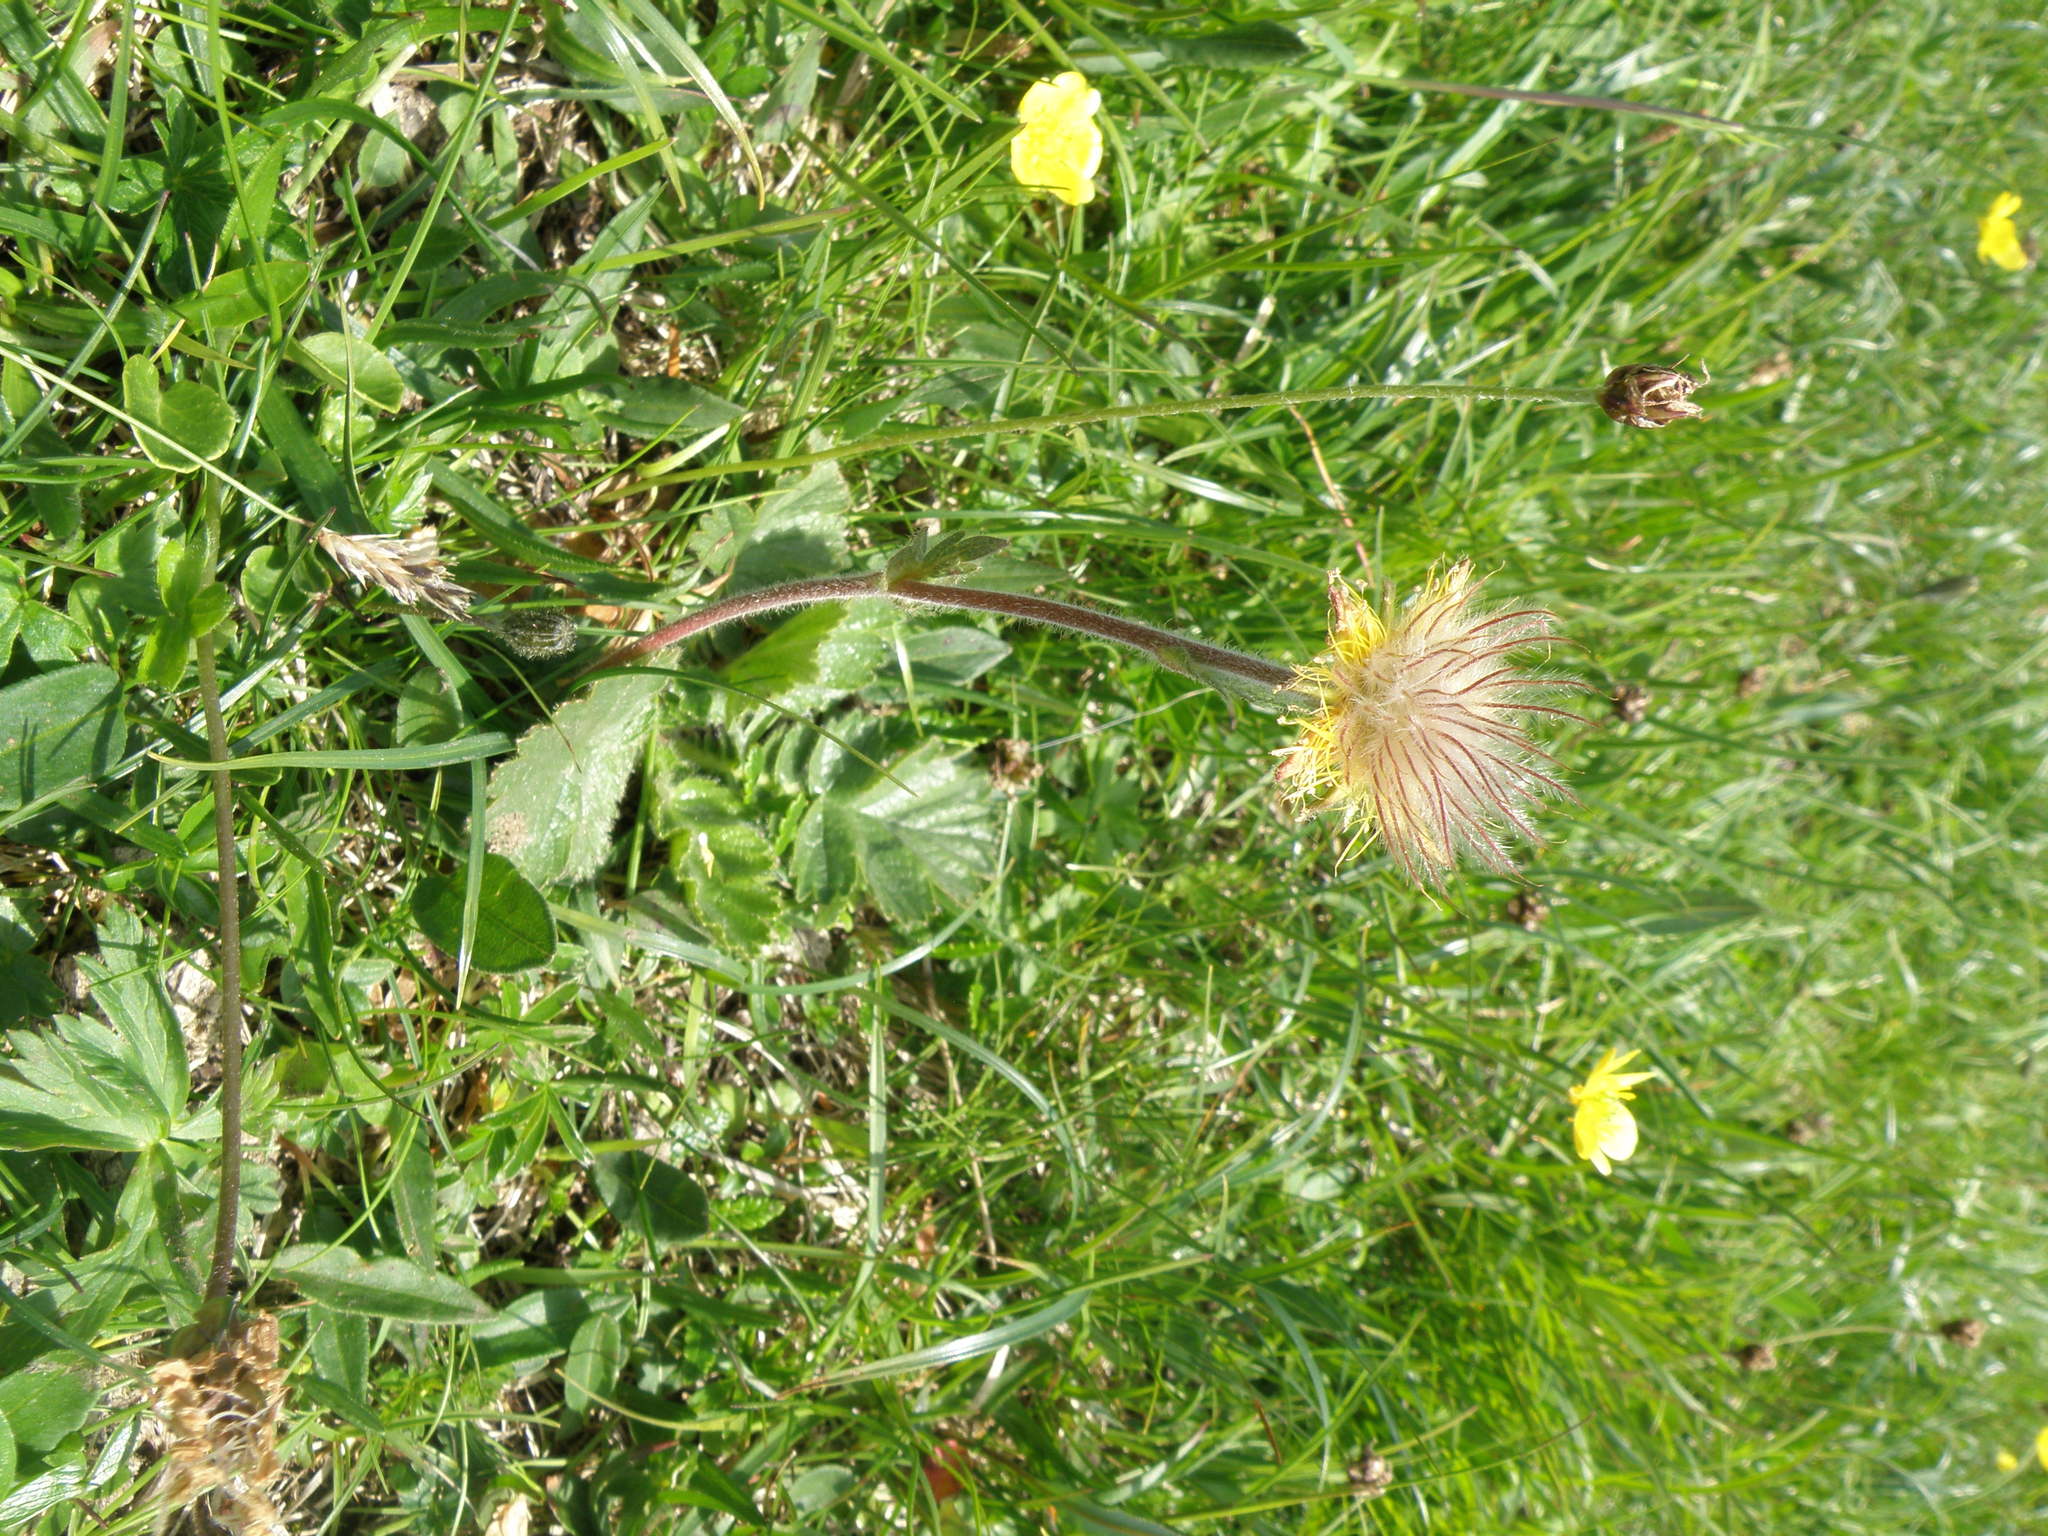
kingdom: Plantae
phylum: Tracheophyta
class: Magnoliopsida
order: Rosales
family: Rosaceae
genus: Geum
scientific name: Geum montanum
